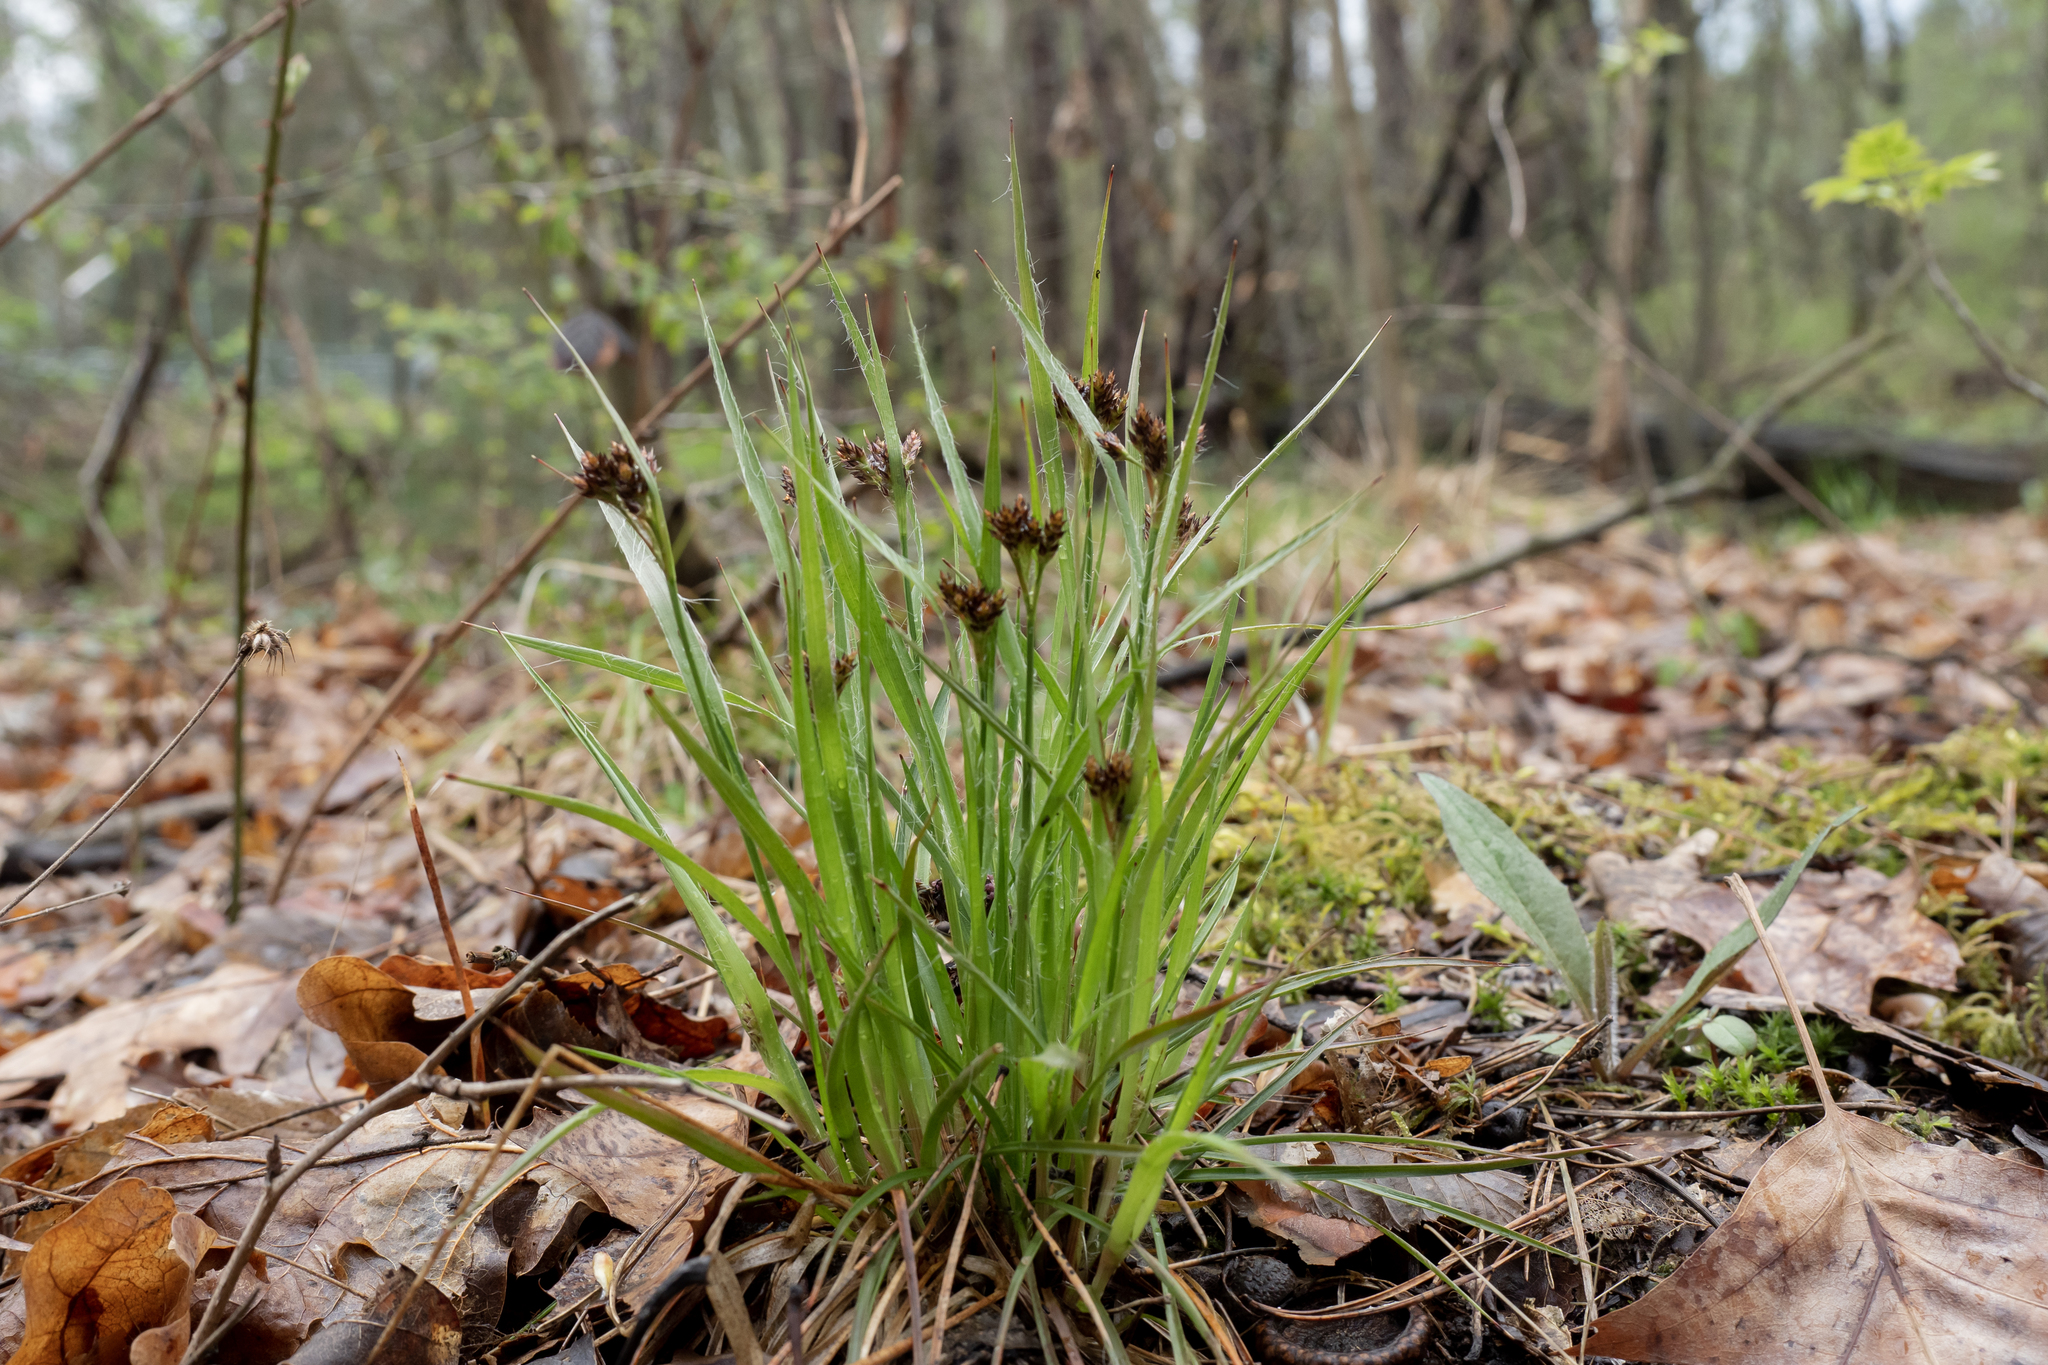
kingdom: Plantae
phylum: Tracheophyta
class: Liliopsida
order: Poales
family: Juncaceae
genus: Luzula
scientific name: Luzula campestris
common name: Field wood-rush
